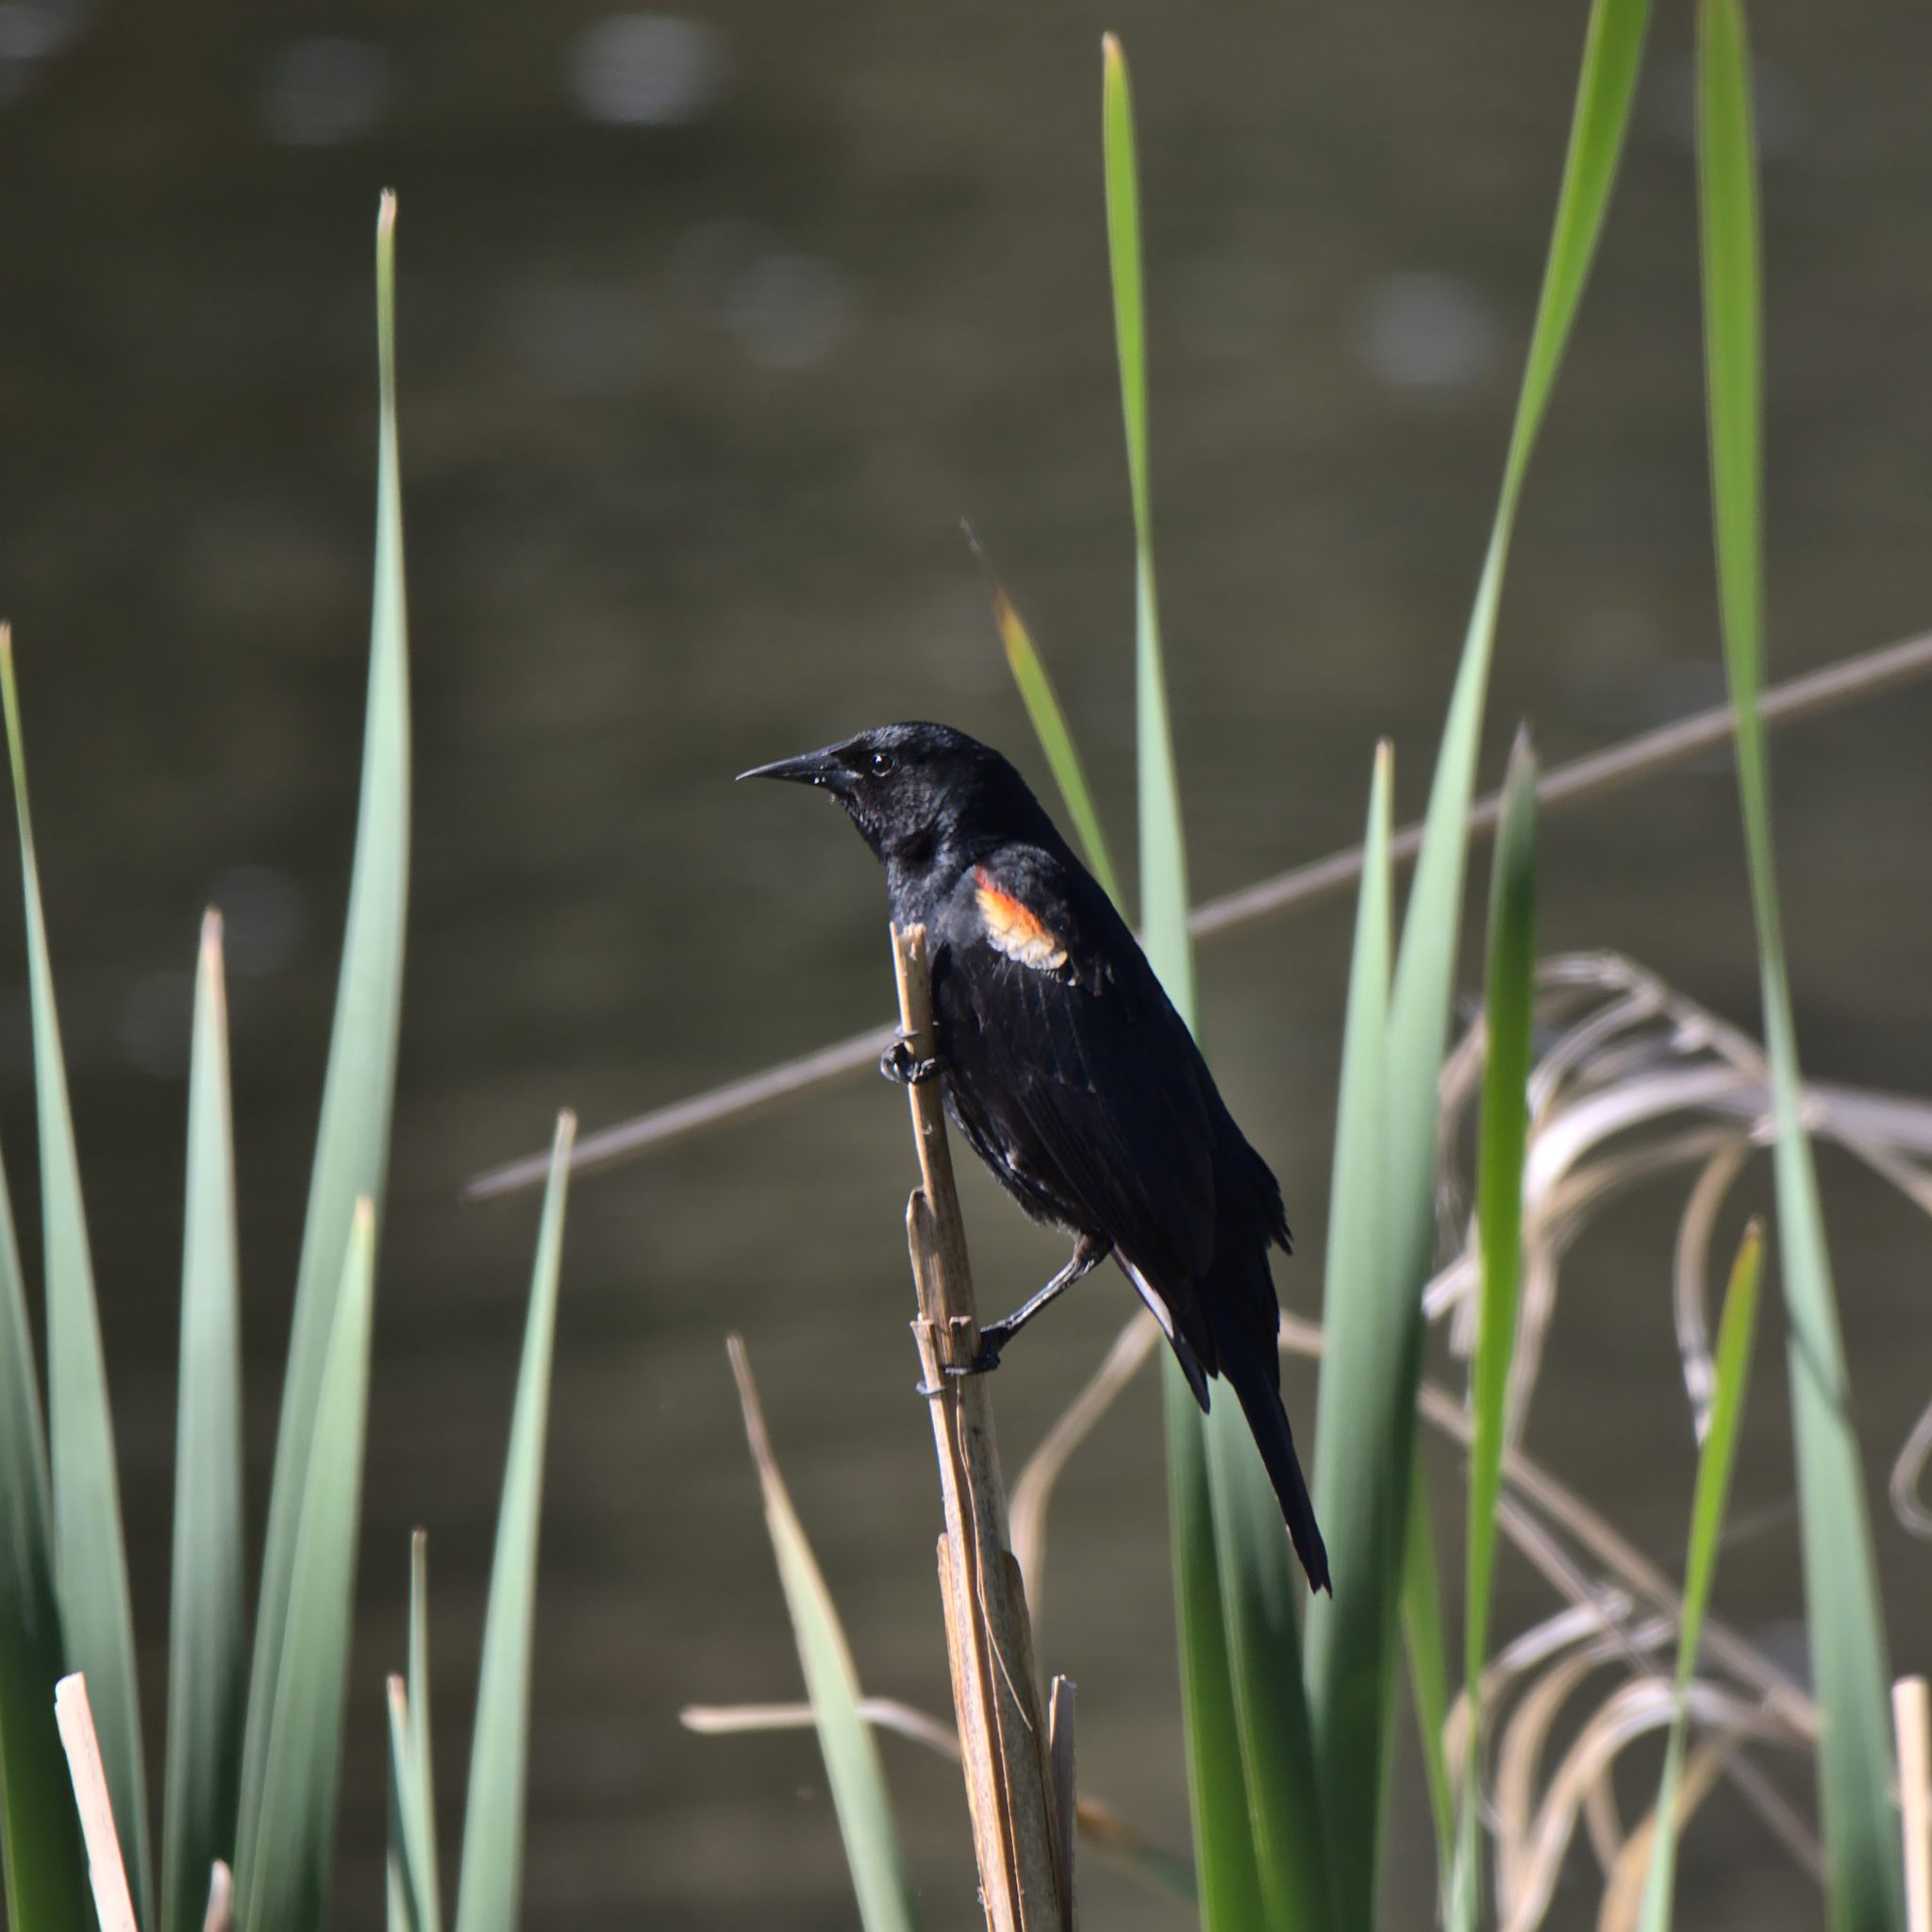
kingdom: Animalia
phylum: Chordata
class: Aves
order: Passeriformes
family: Icteridae
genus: Agelaius
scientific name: Agelaius phoeniceus
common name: Red-winged blackbird
